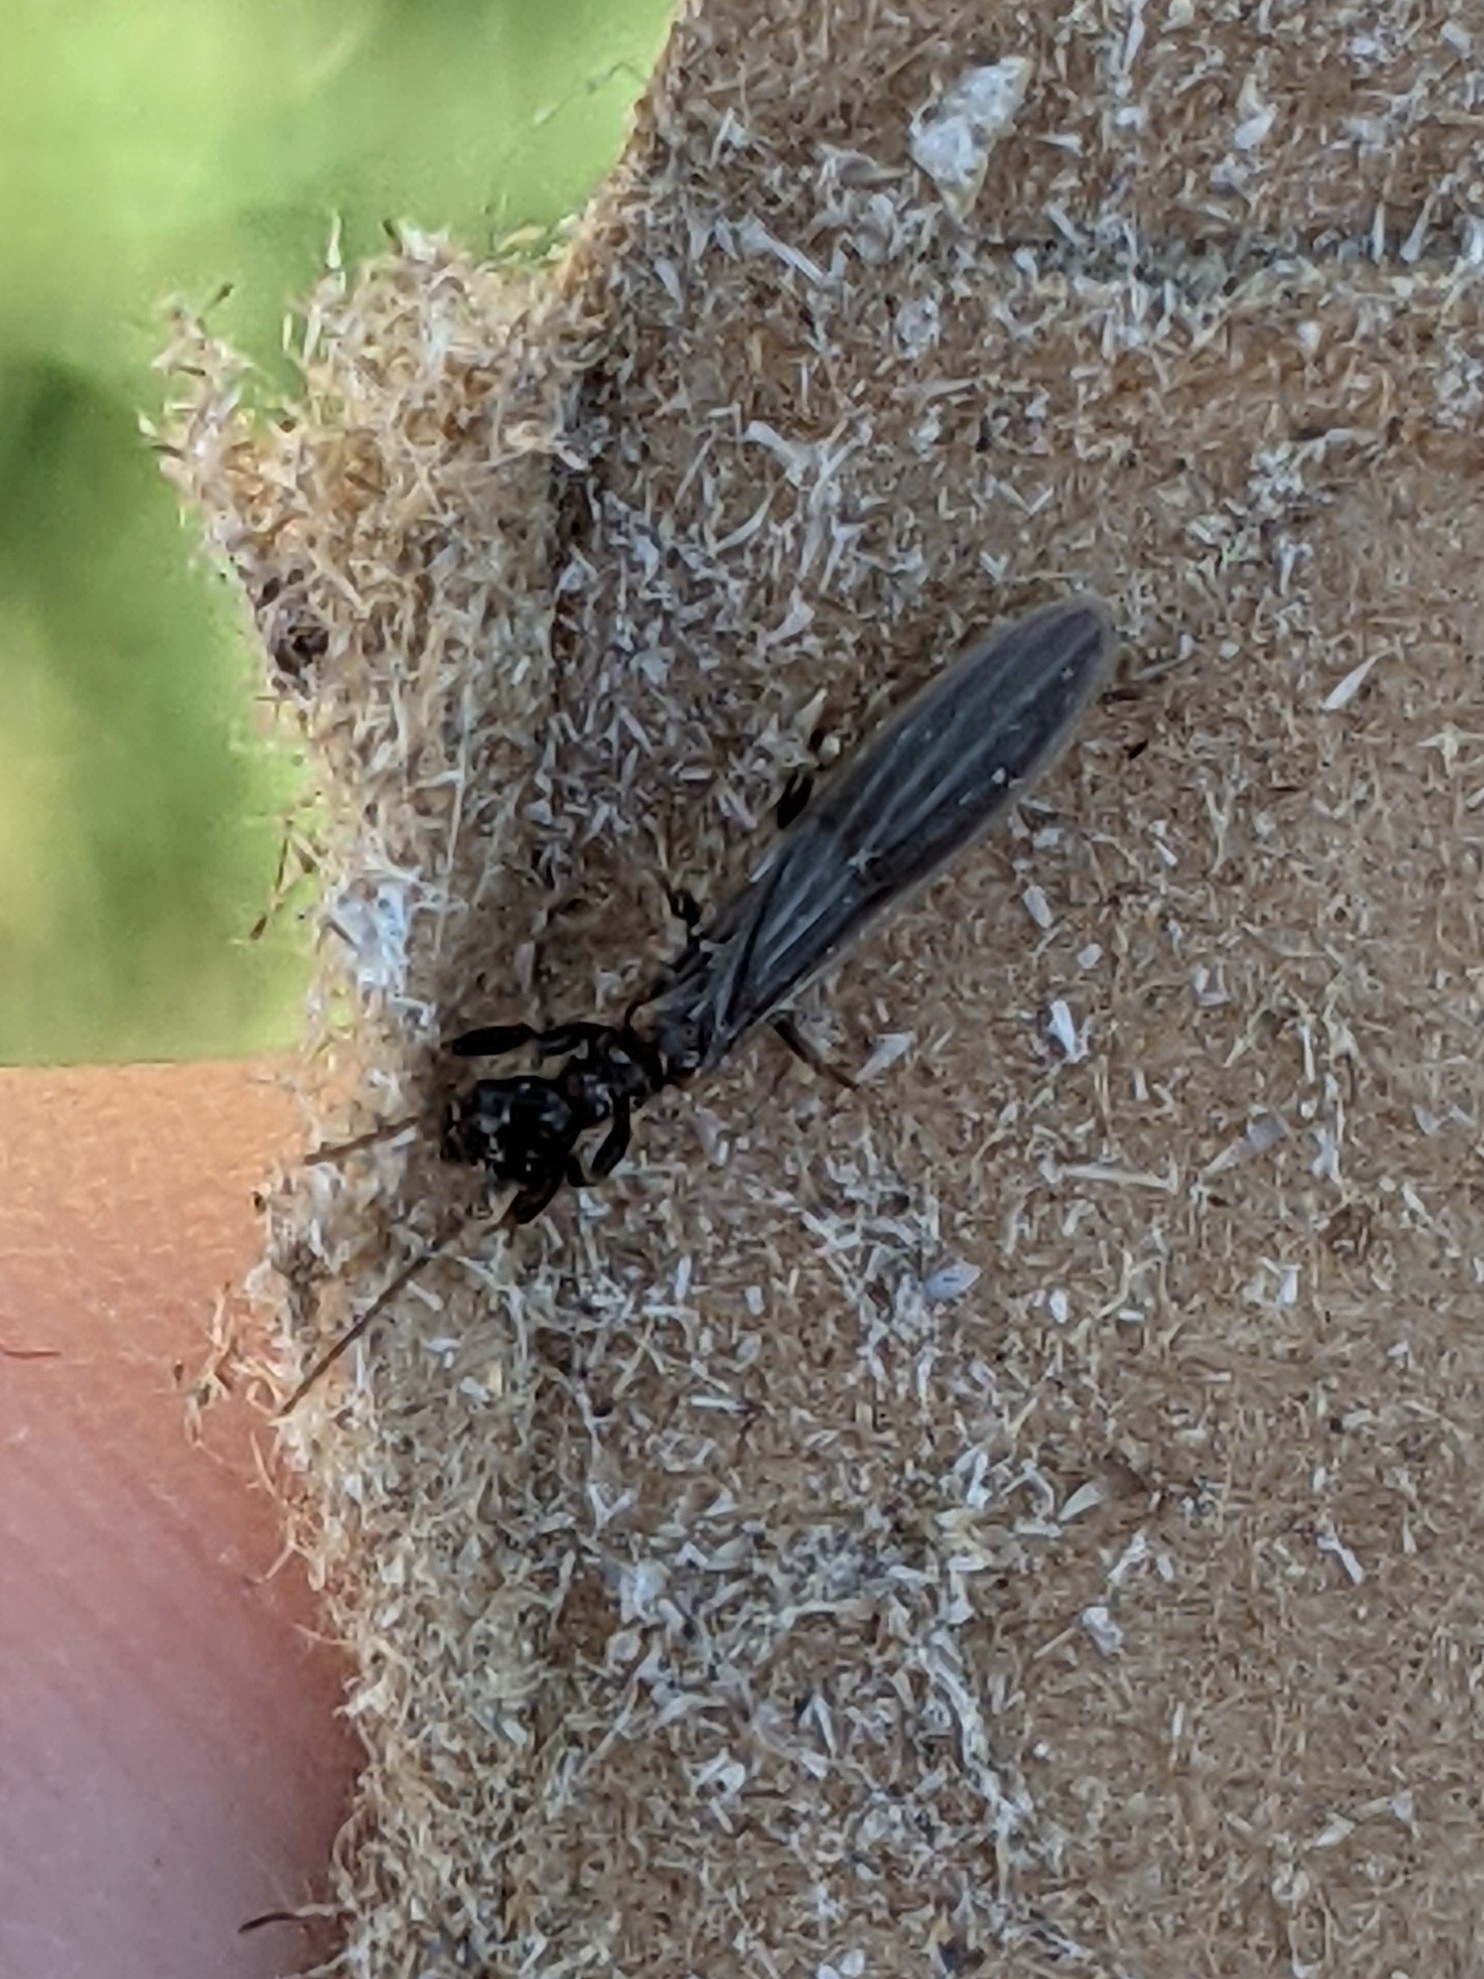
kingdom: Animalia
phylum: Arthropoda
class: Insecta
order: Embioptera
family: Oligotomidae
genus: Oligotoma
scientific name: Oligotoma nigra
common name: Black webspinner
